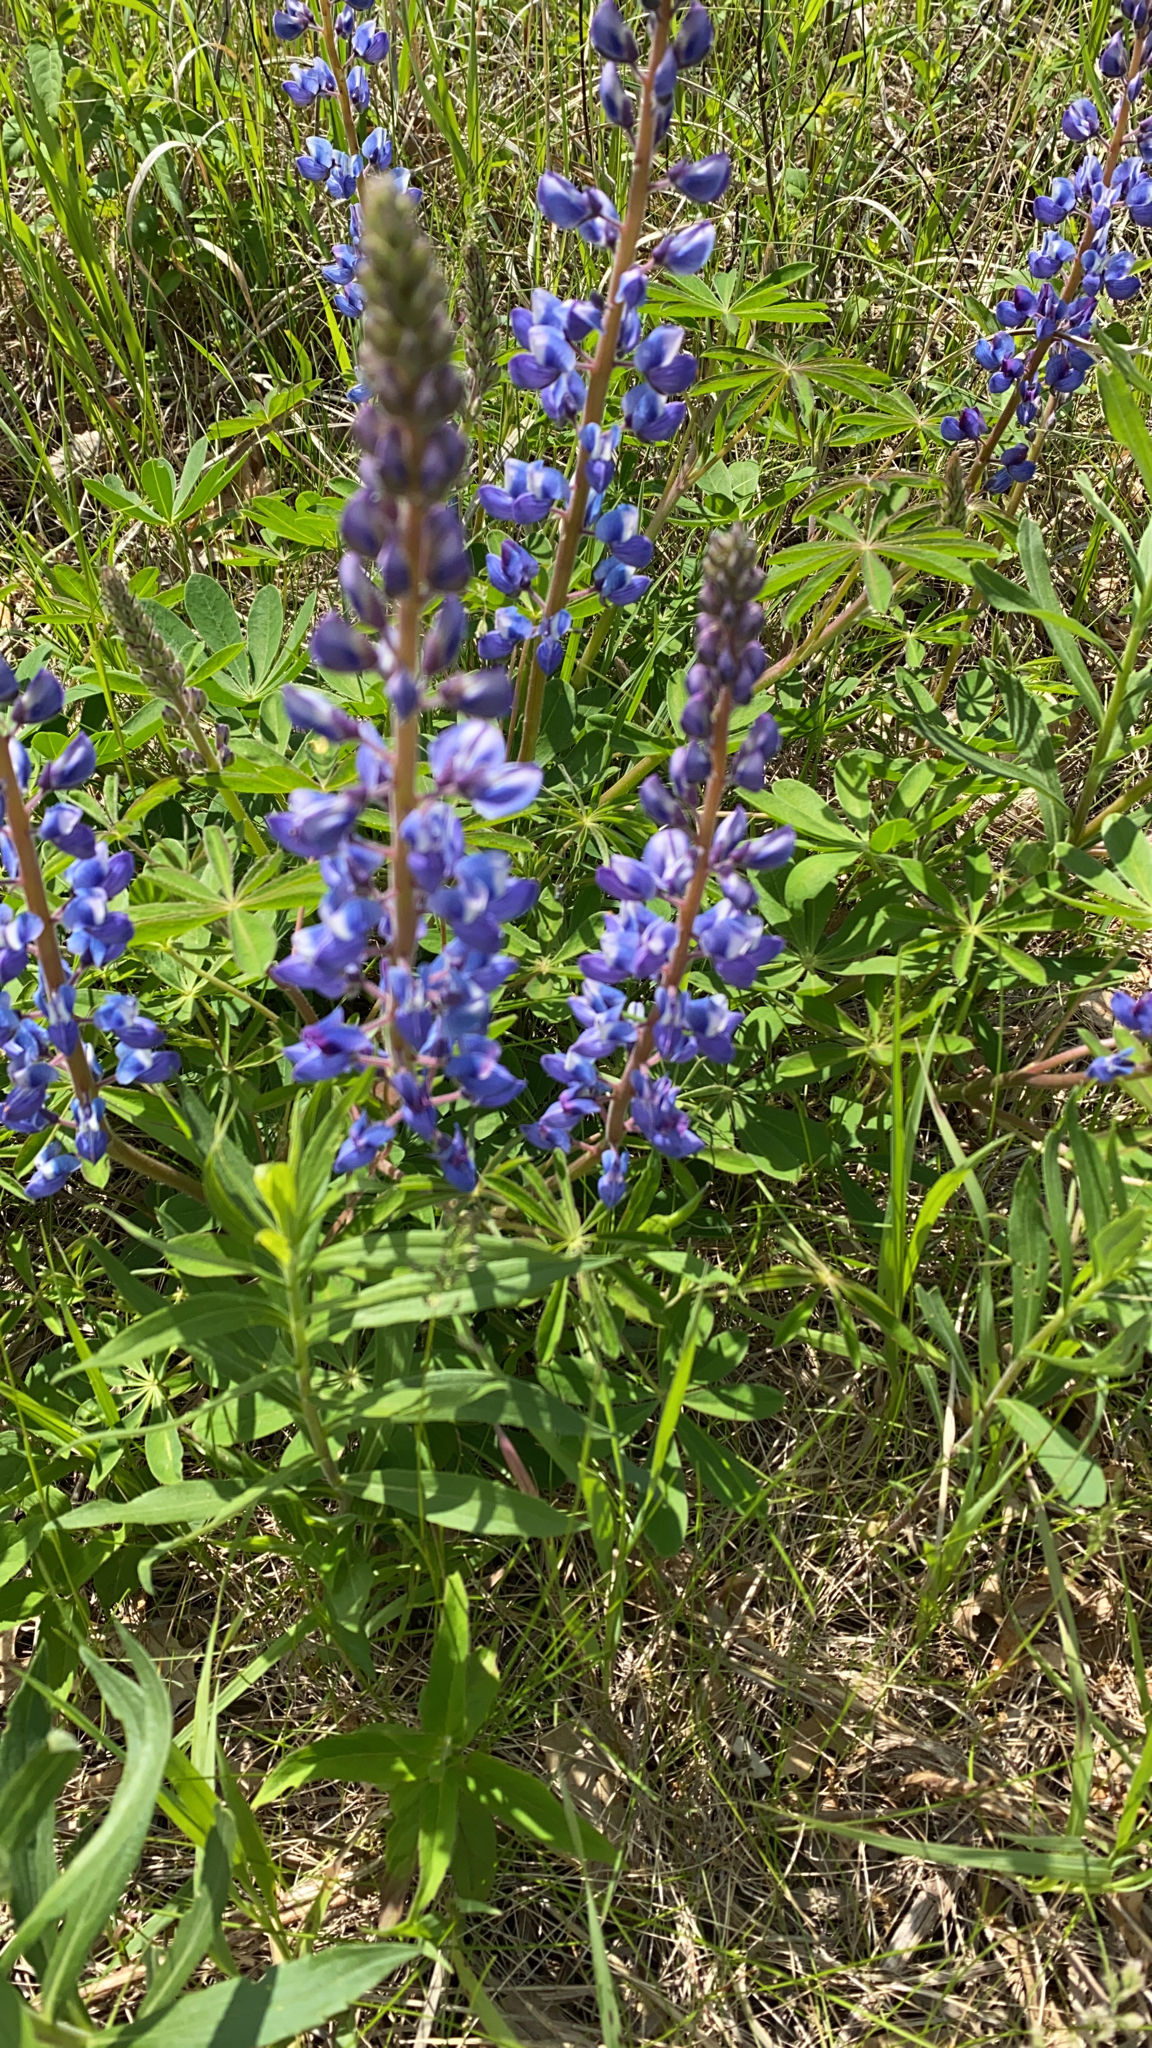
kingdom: Plantae
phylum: Tracheophyta
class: Magnoliopsida
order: Fabales
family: Fabaceae
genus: Lupinus
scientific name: Lupinus perennis
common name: Sundial lupine
